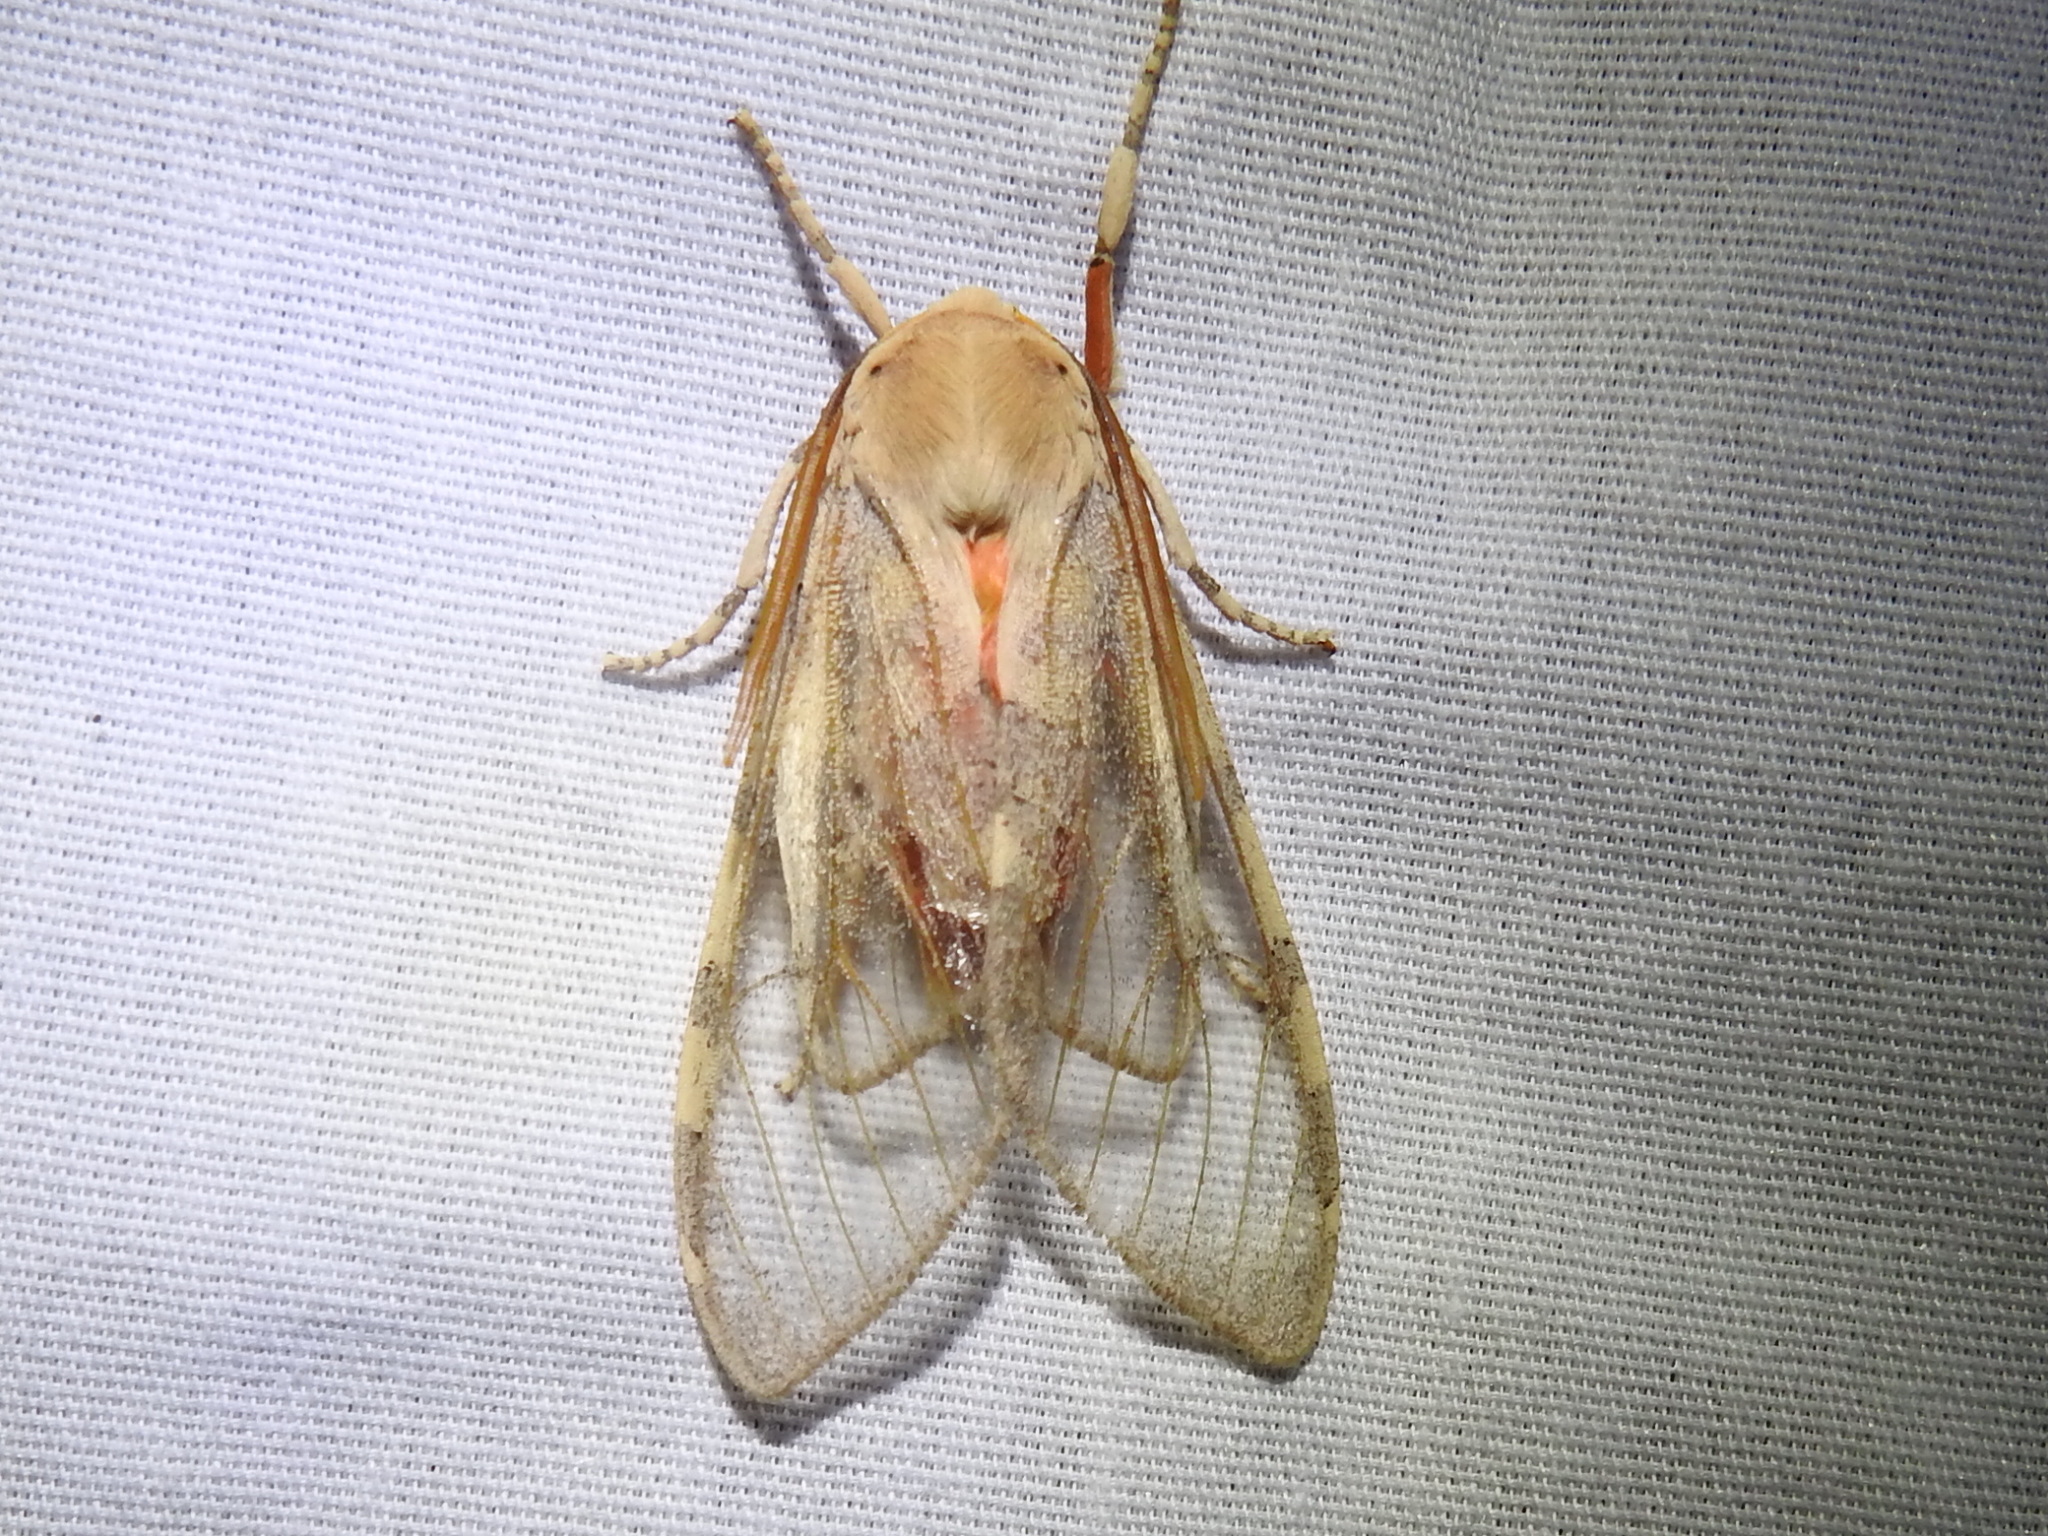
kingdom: Animalia
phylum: Arthropoda
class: Insecta
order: Lepidoptera
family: Erebidae
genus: Hemihyalea
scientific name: Hemihyalea edwardsii
